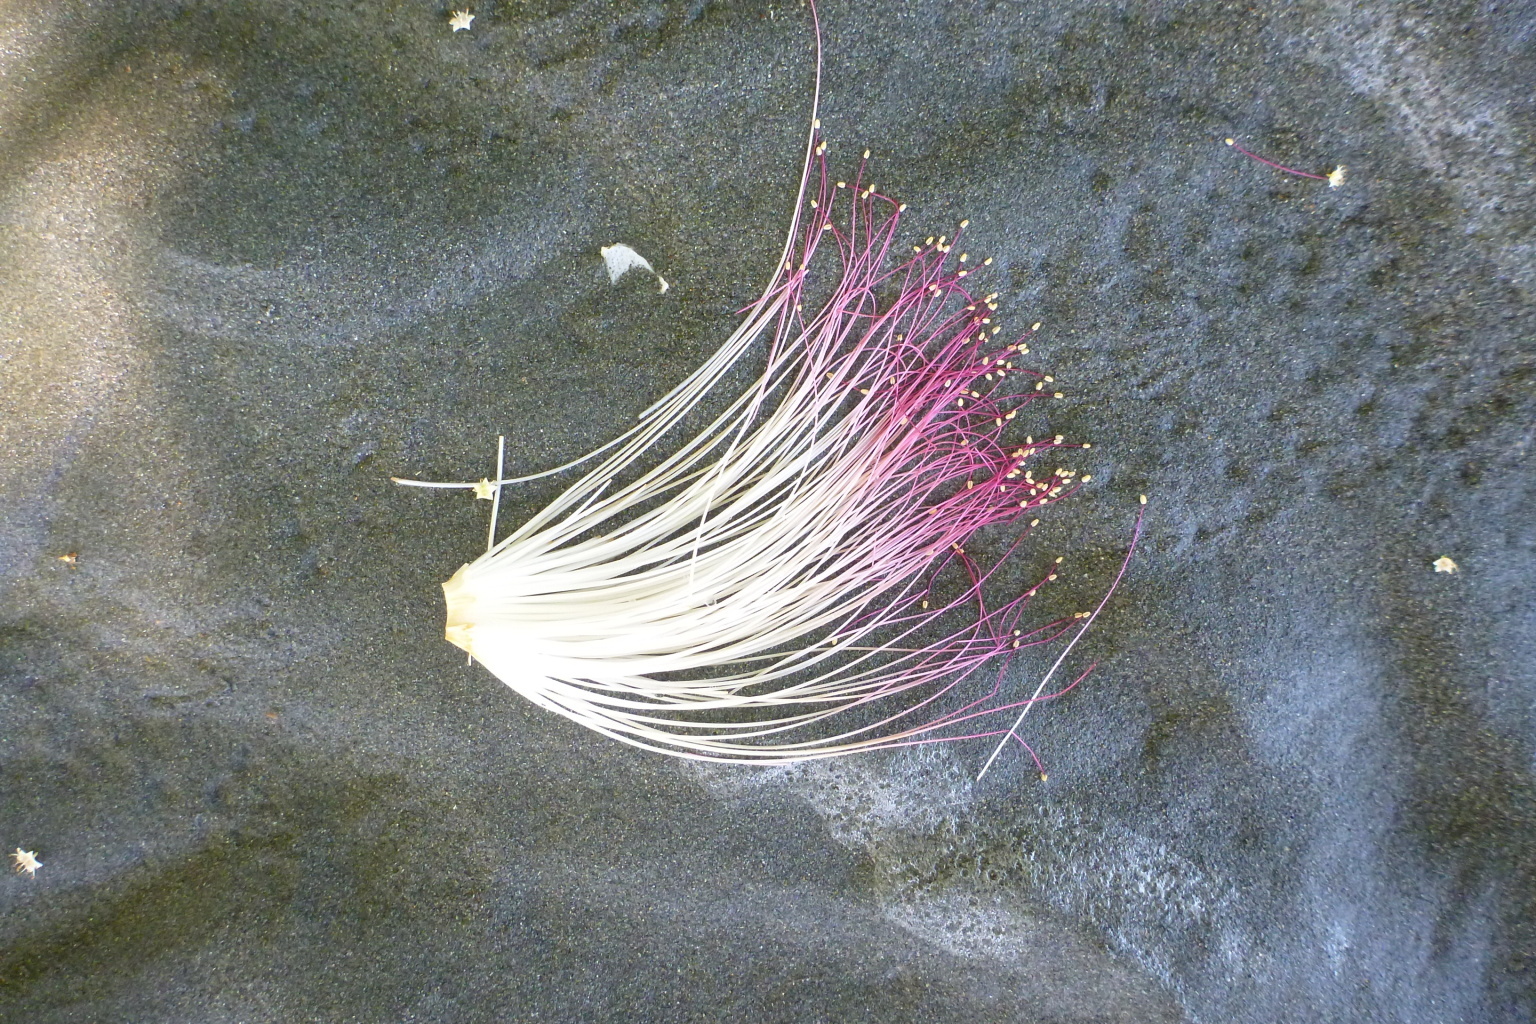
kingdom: Plantae
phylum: Tracheophyta
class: Magnoliopsida
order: Ericales
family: Lecythidaceae
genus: Barringtonia
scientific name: Barringtonia asiatica
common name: Mango-pine
